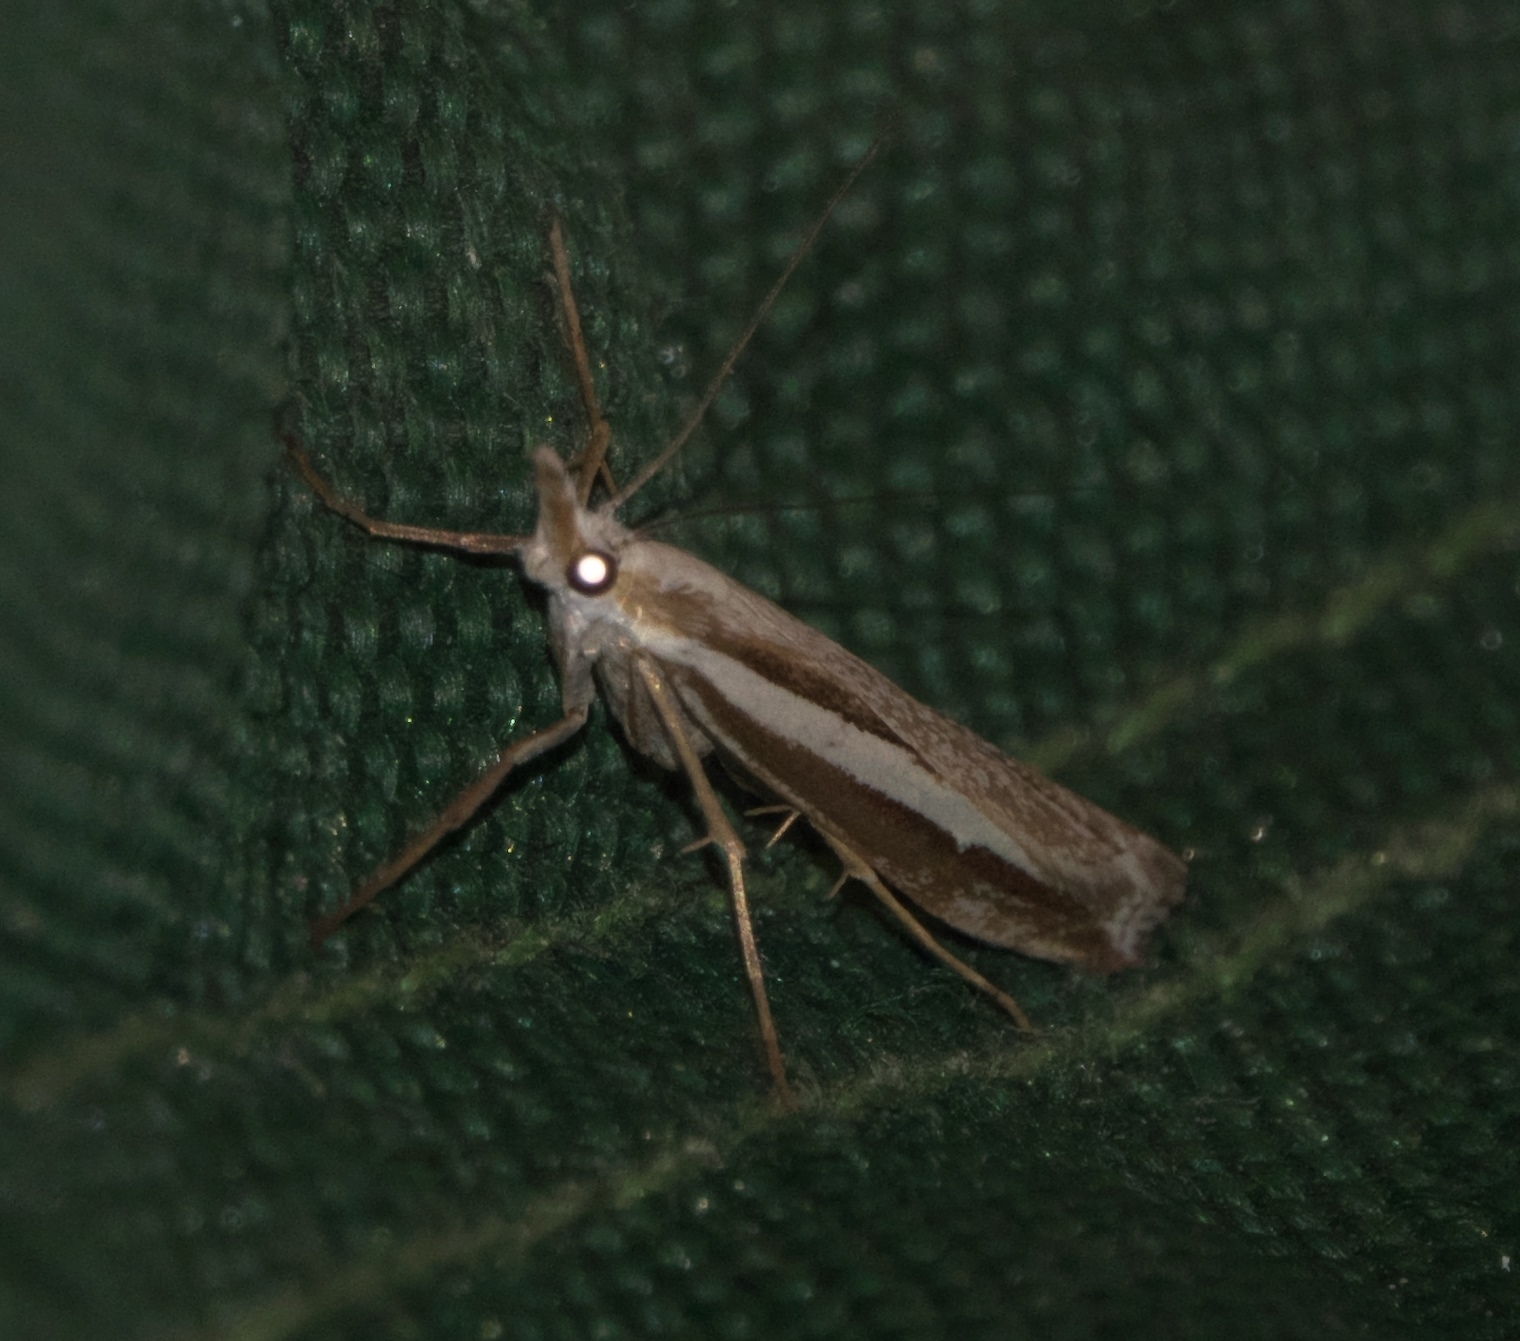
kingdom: Animalia
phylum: Arthropoda
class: Insecta
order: Lepidoptera
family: Crambidae
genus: Orocrambus
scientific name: Orocrambus vittellus
